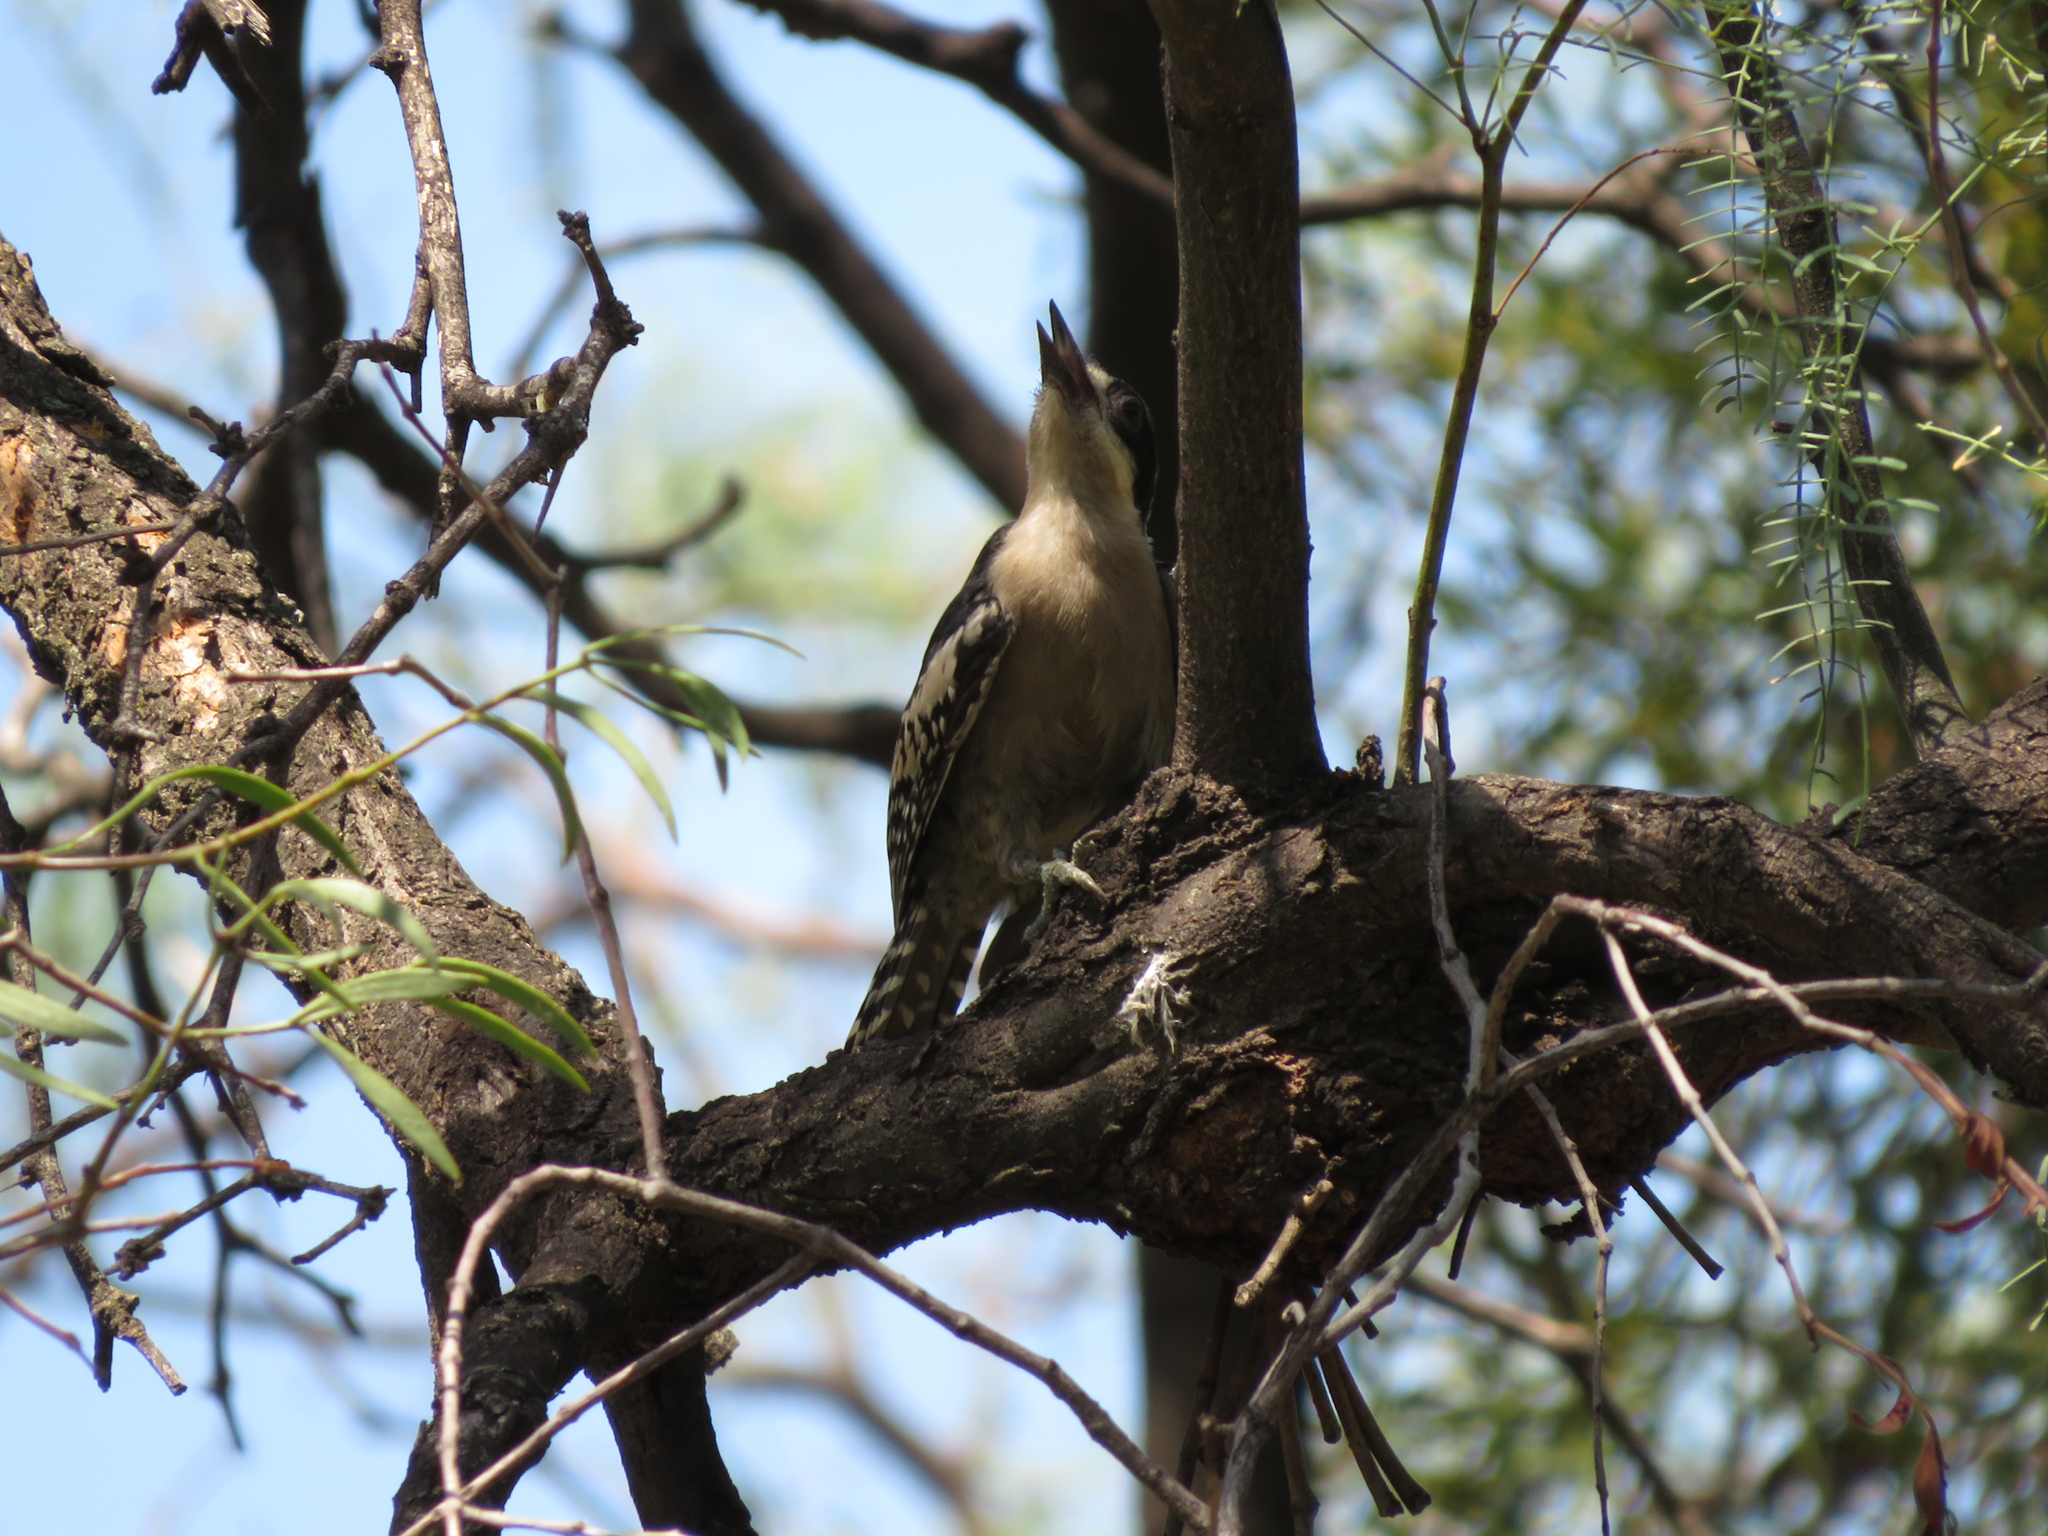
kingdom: Animalia
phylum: Chordata
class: Aves
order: Piciformes
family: Picidae
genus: Melanerpes
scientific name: Melanerpes cactorum
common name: White-fronted woodpecker
